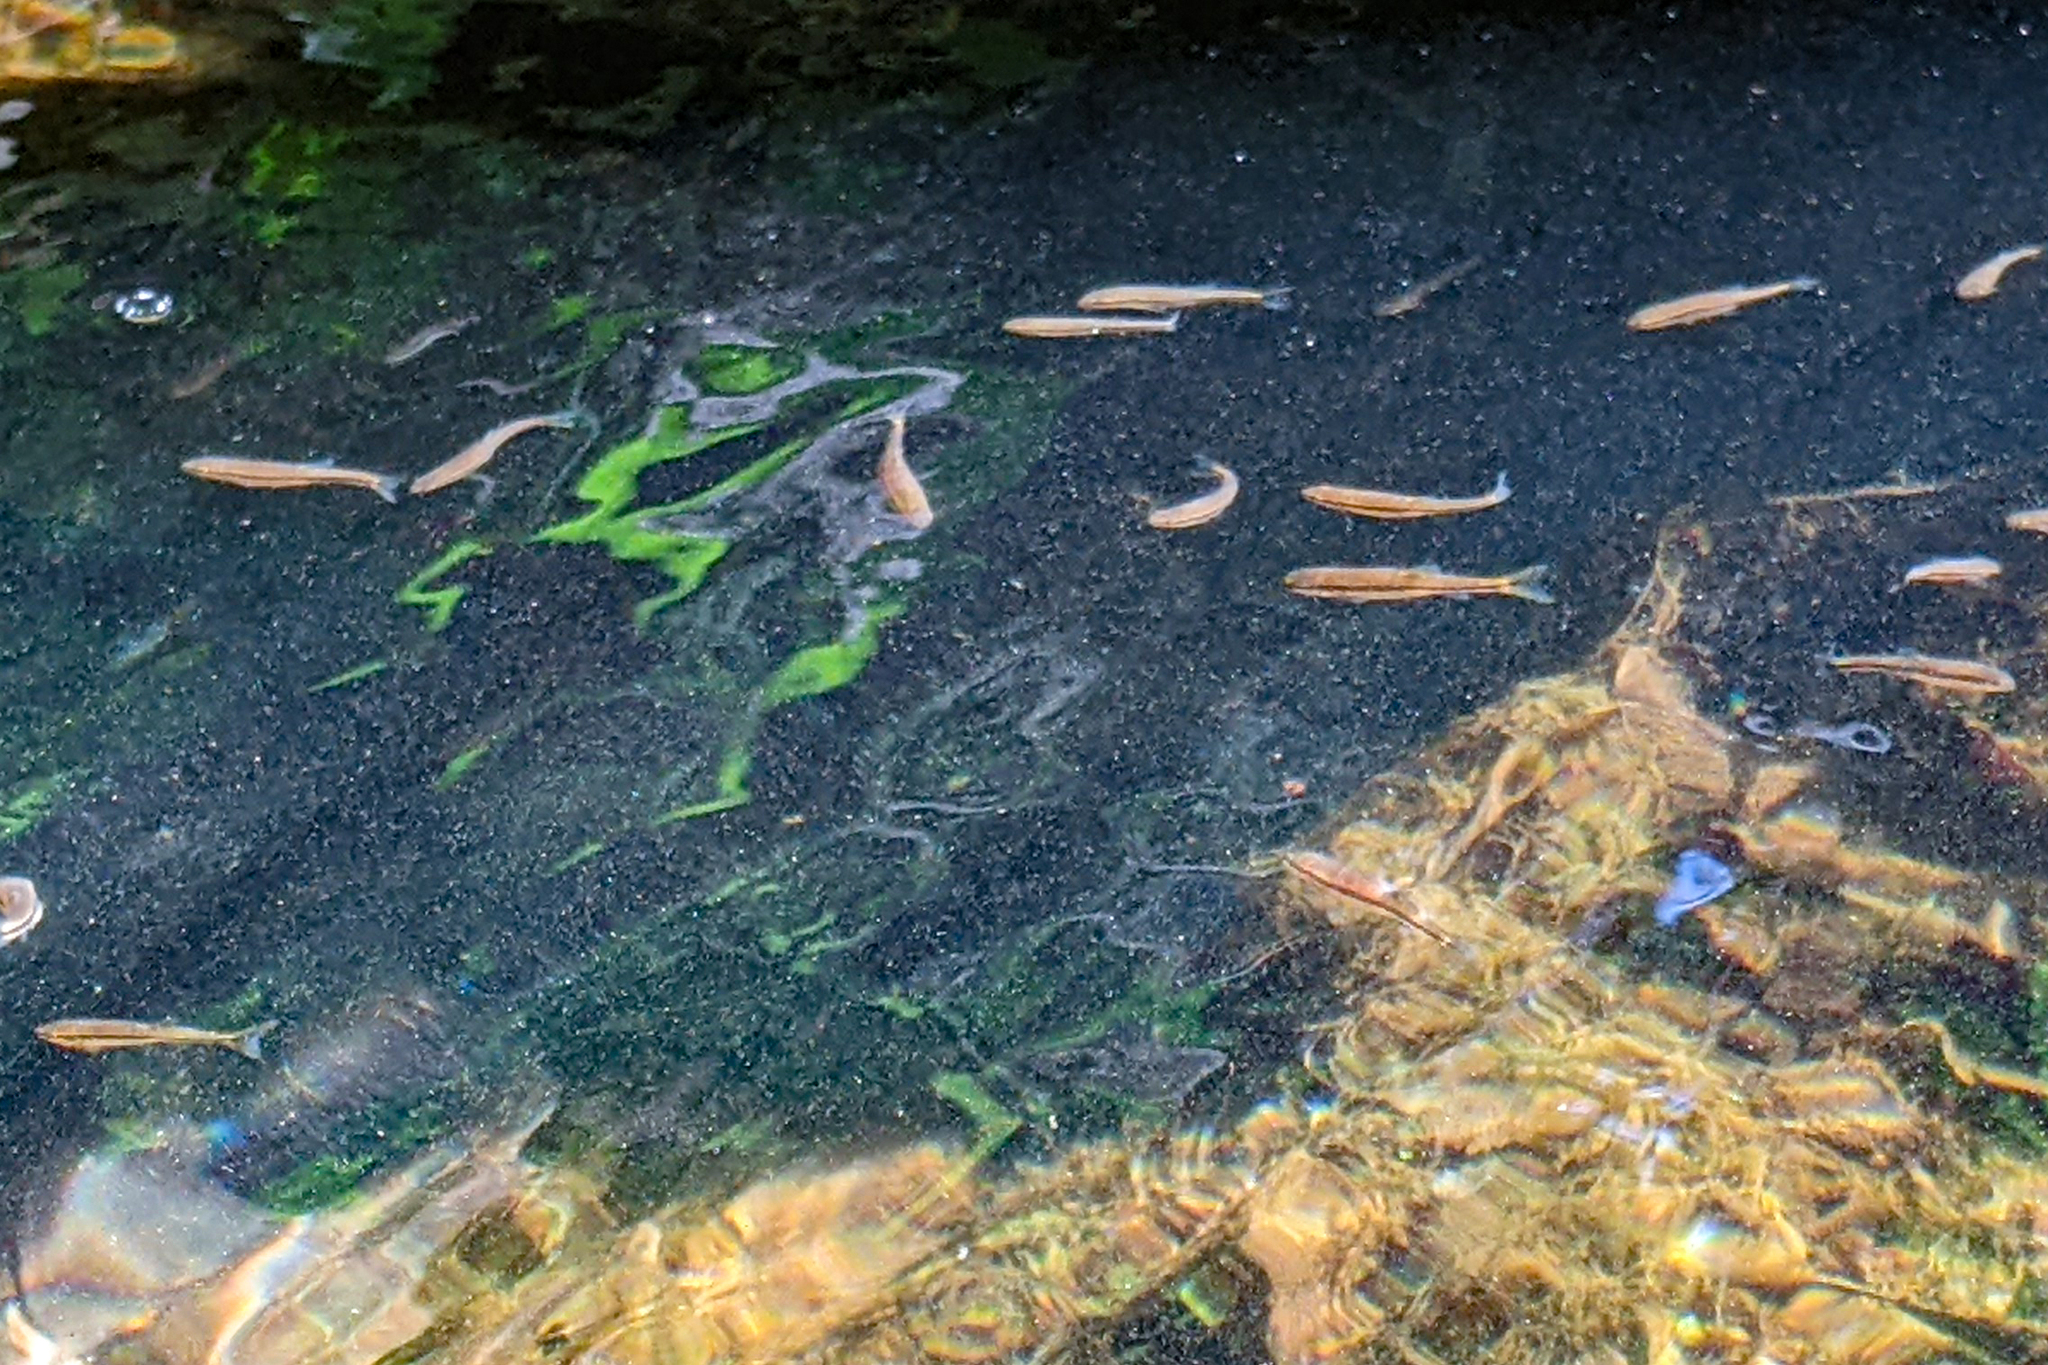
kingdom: Animalia
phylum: Chordata
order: Cypriniformes
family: Cyprinidae
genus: Rhinichthys
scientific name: Rhinichthys atratulus
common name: Eastern blacknose dace
